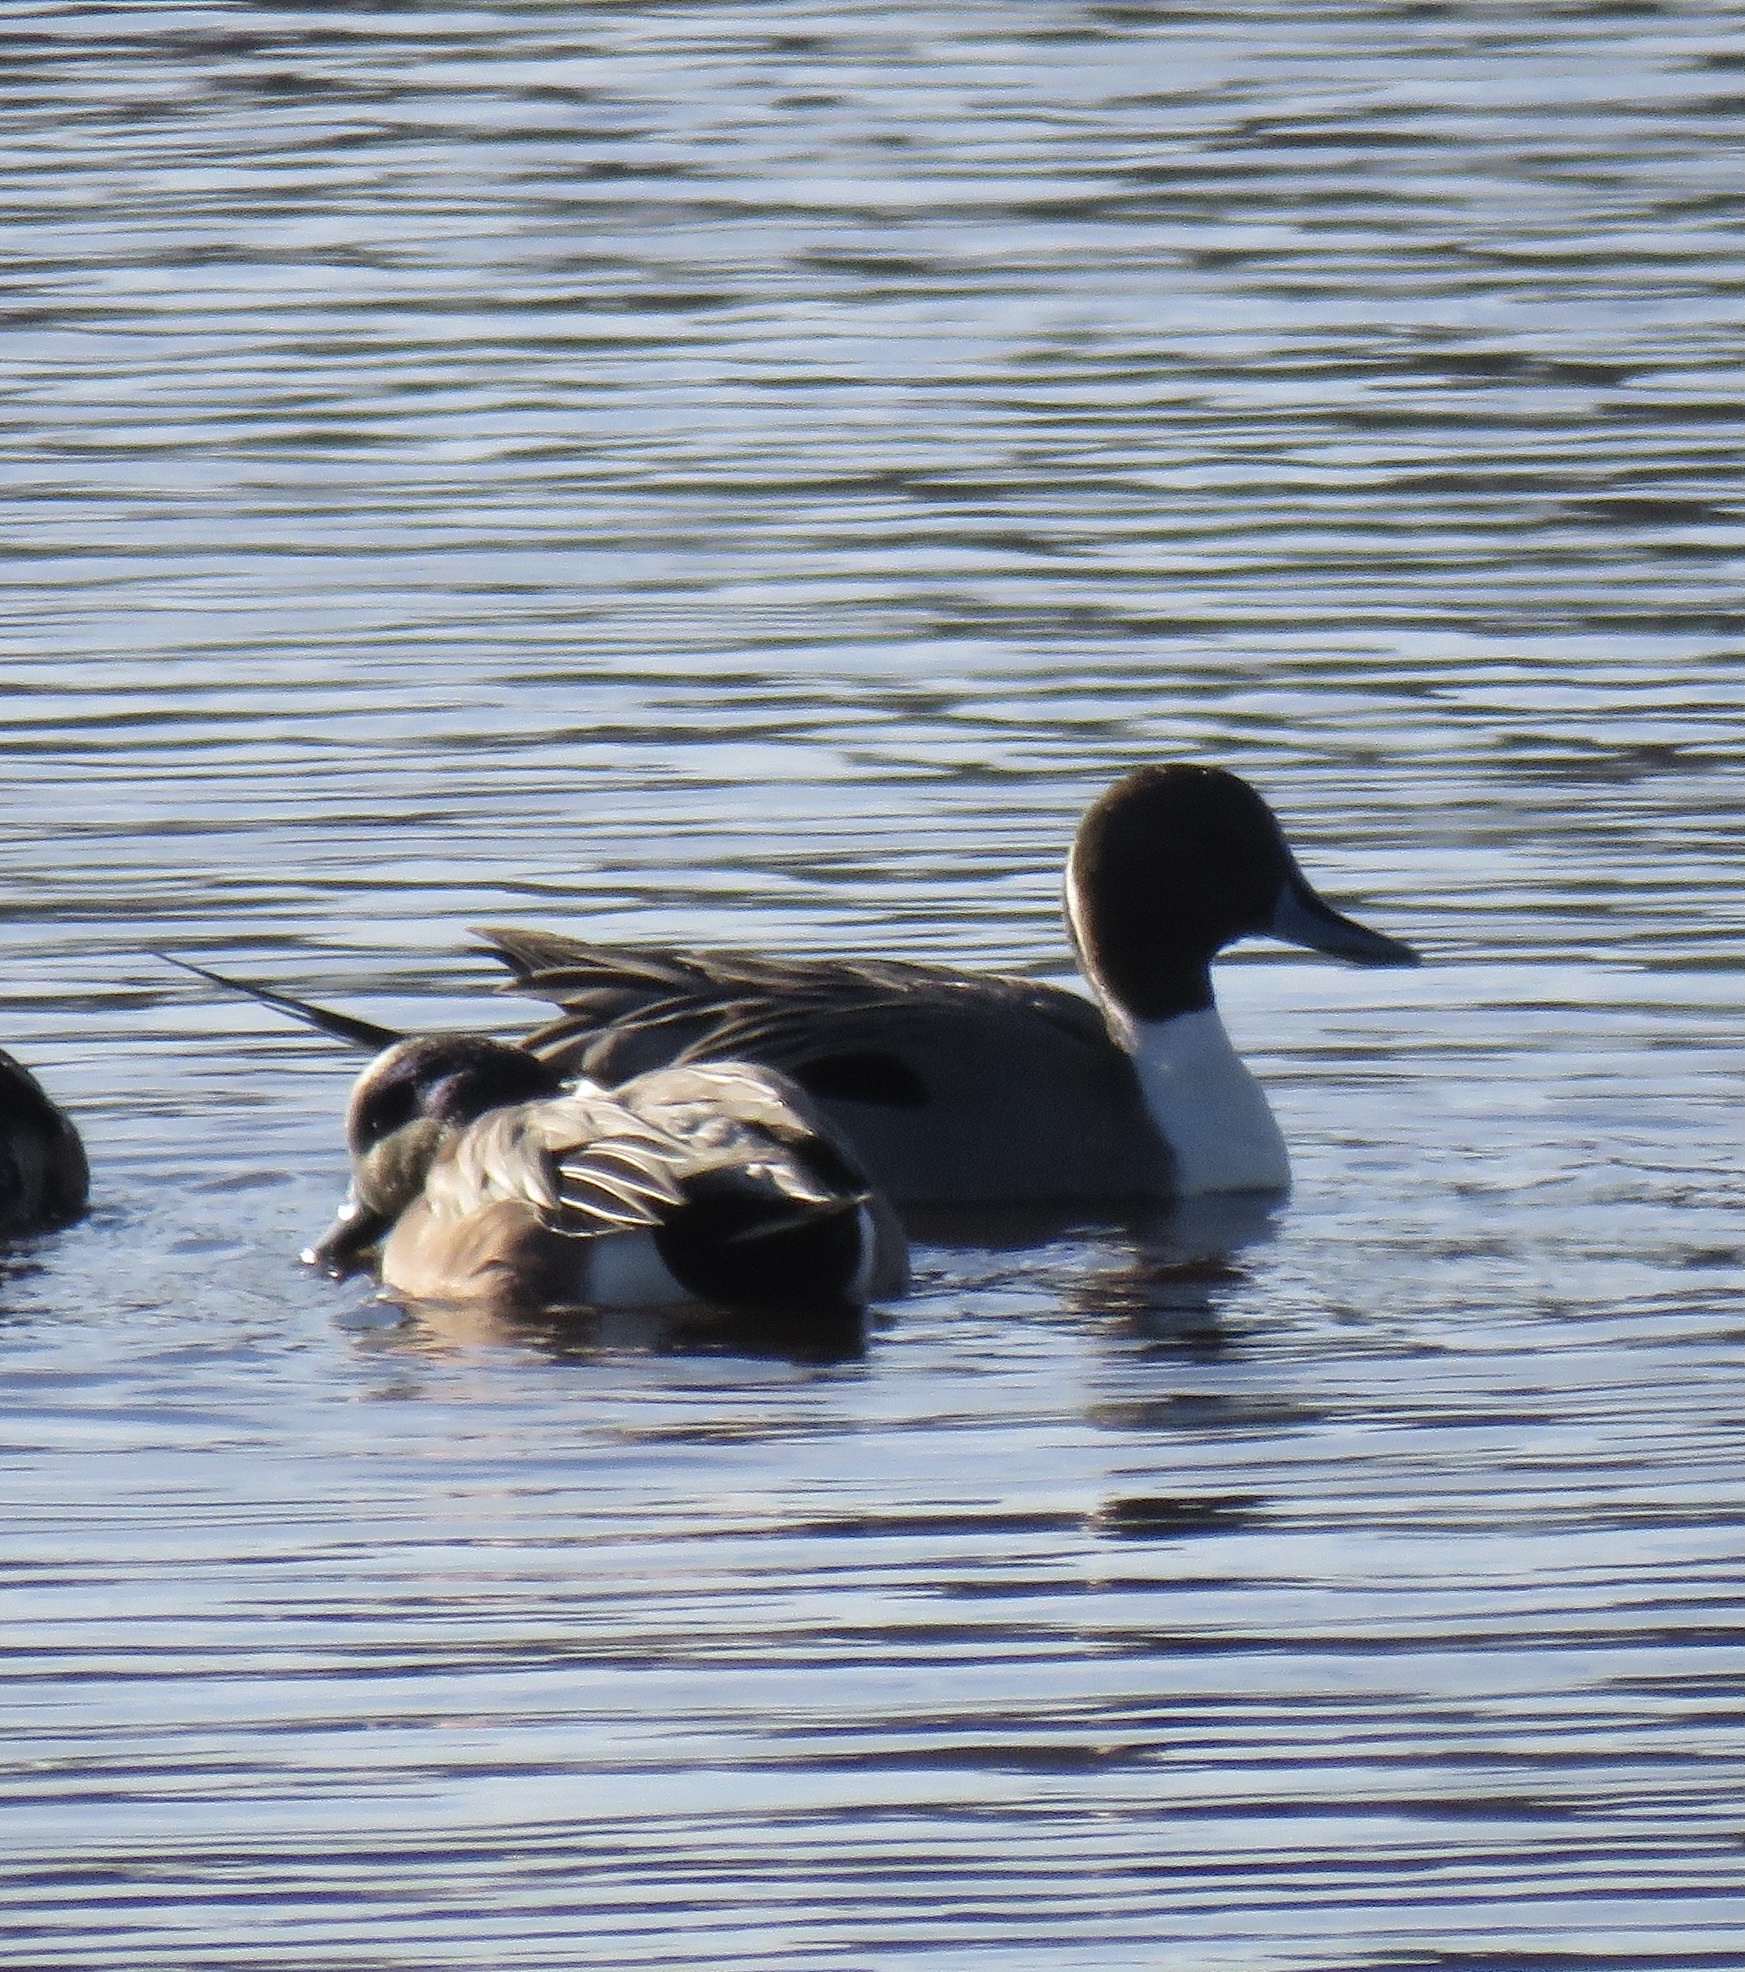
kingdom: Animalia
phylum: Chordata
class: Aves
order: Anseriformes
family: Anatidae
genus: Anas
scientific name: Anas acuta
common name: Northern pintail
